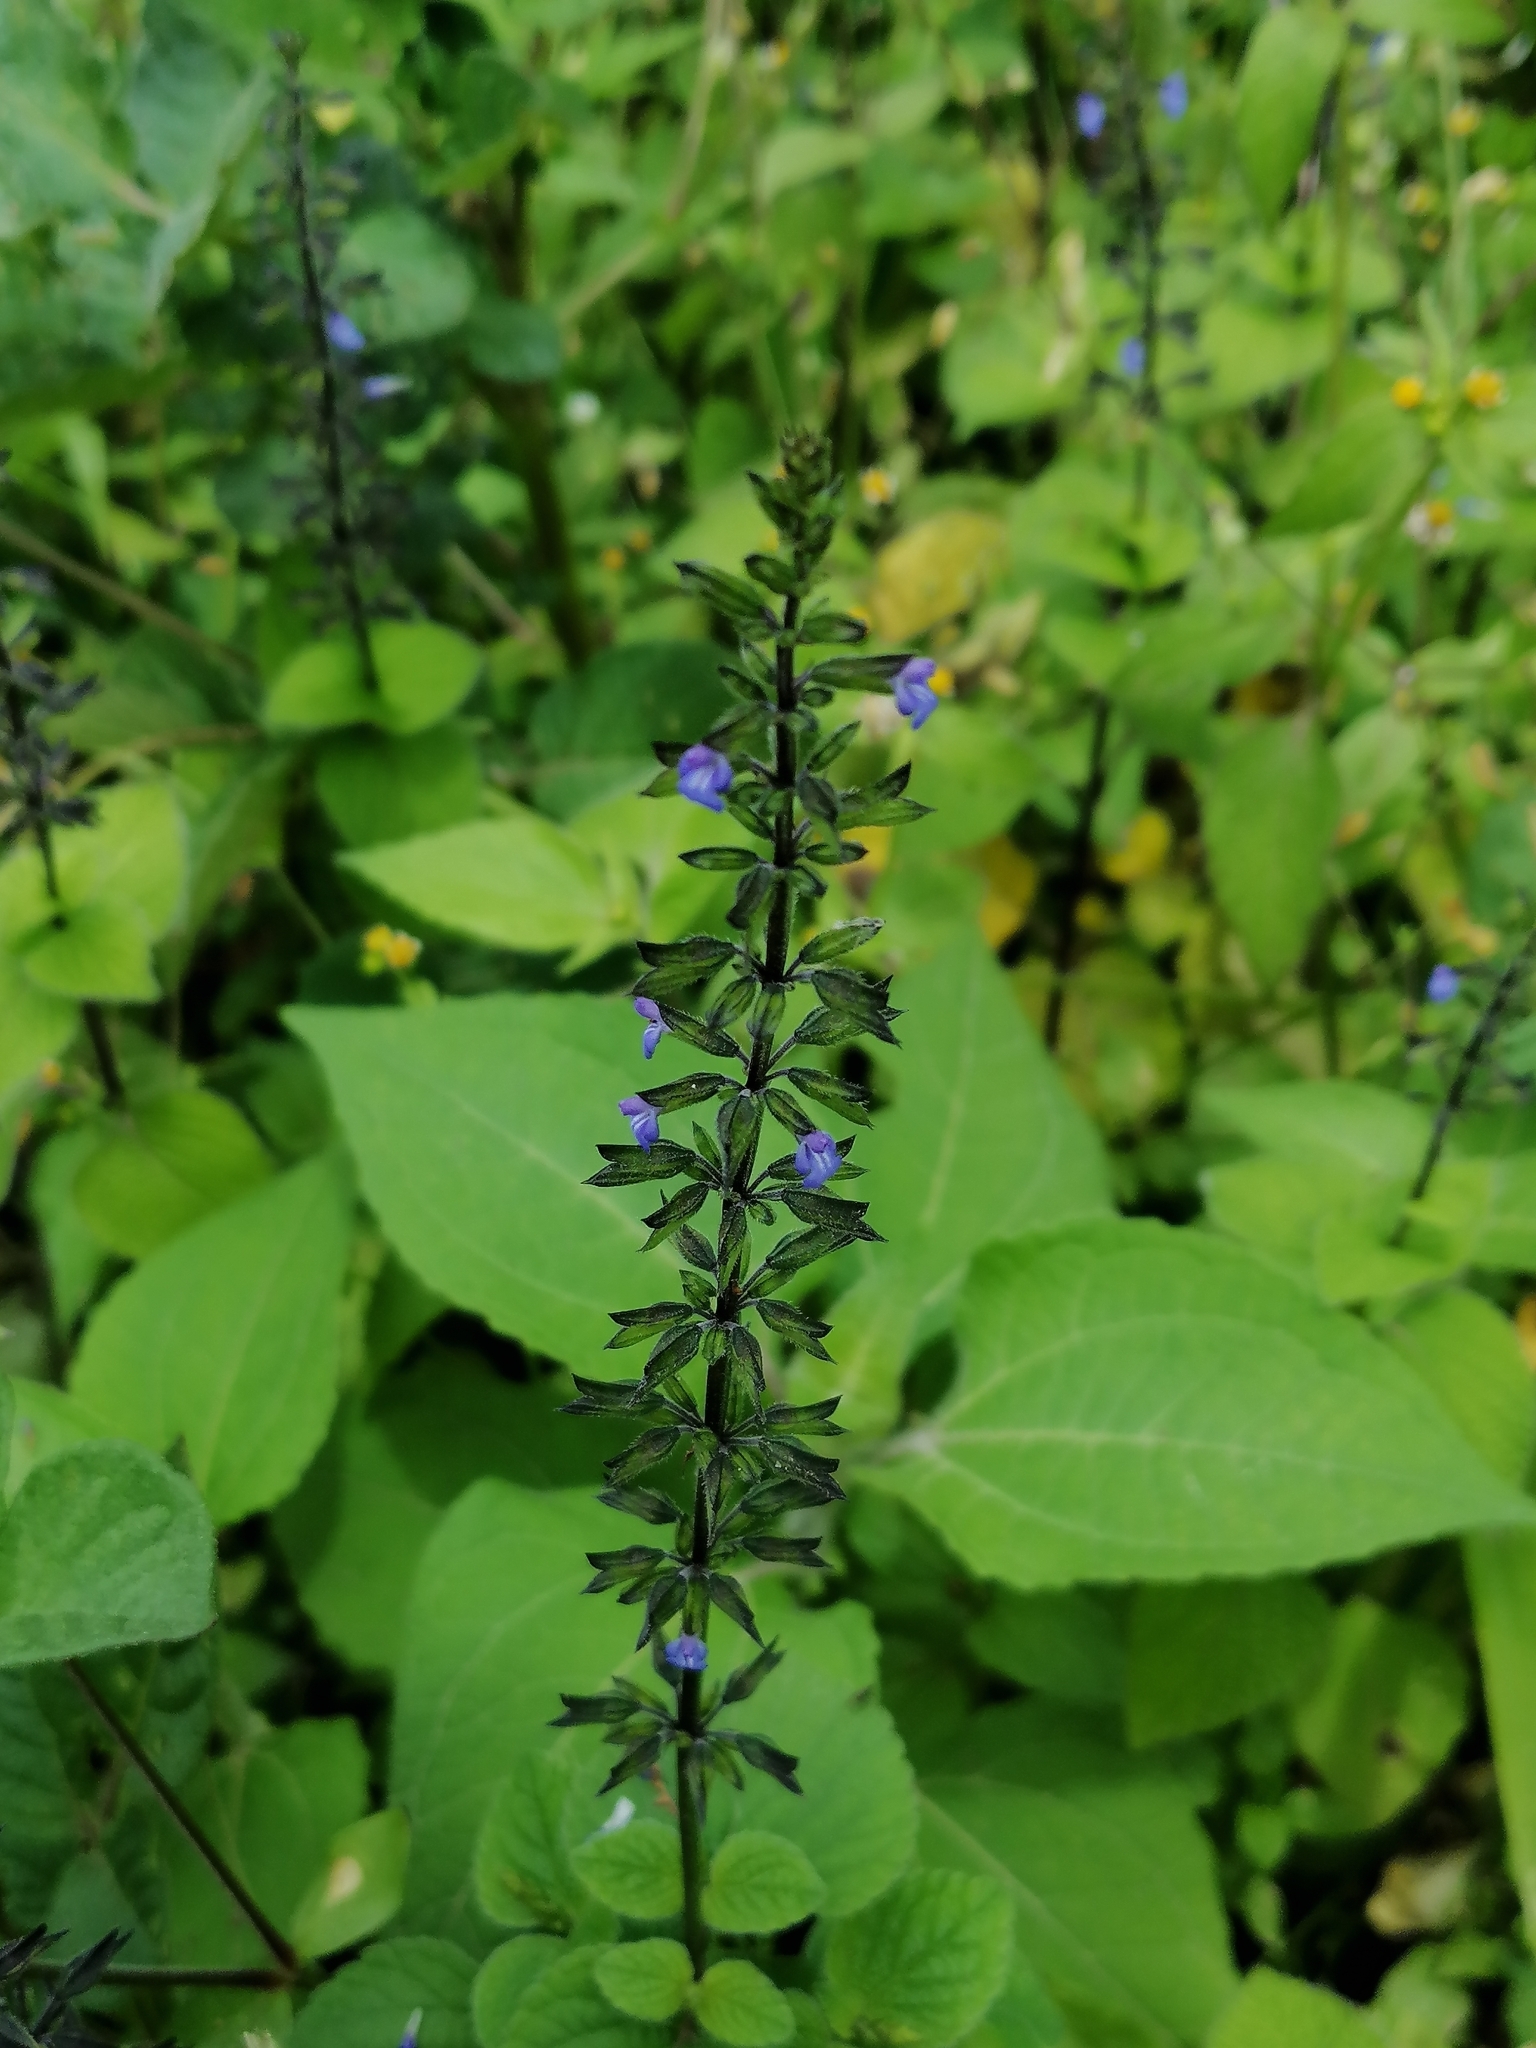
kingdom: Plantae
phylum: Tracheophyta
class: Magnoliopsida
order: Lamiales
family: Lamiaceae
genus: Salvia
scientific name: Salvia tiliifolia
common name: Lindenleaf sage
